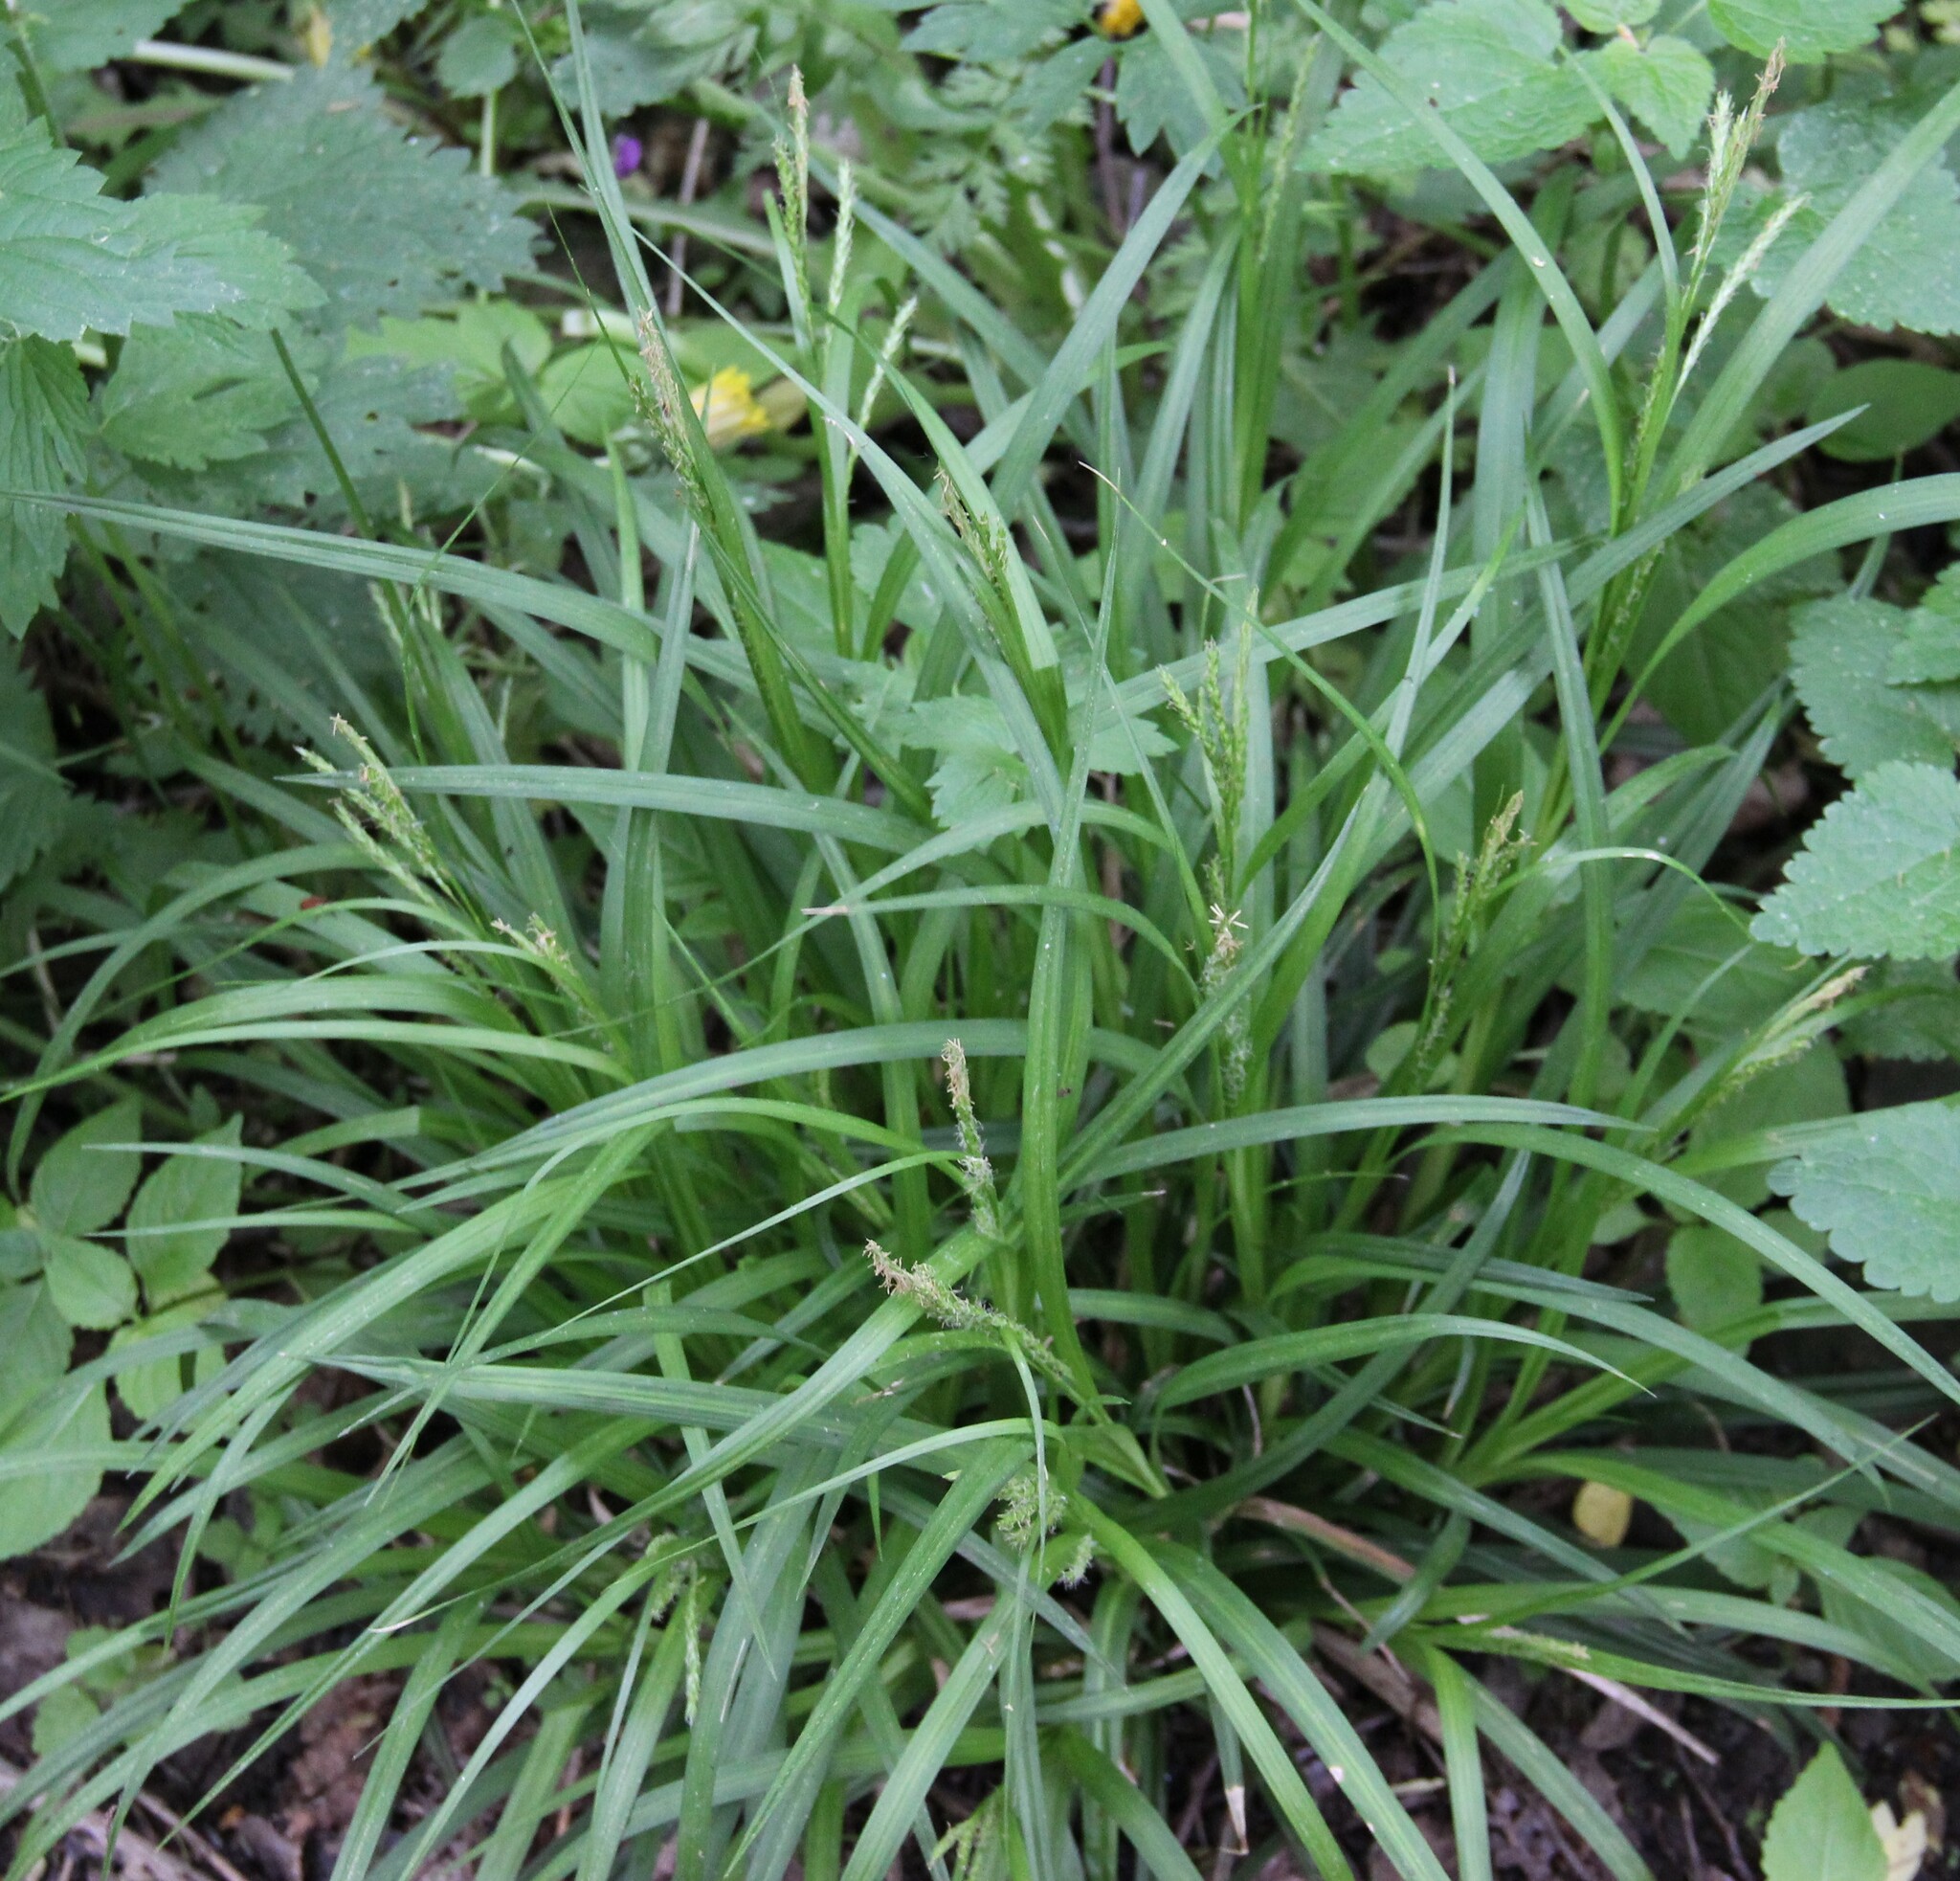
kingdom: Plantae
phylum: Tracheophyta
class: Liliopsida
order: Poales
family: Cyperaceae
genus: Carex
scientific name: Carex sylvatica
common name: Wood-sedge
